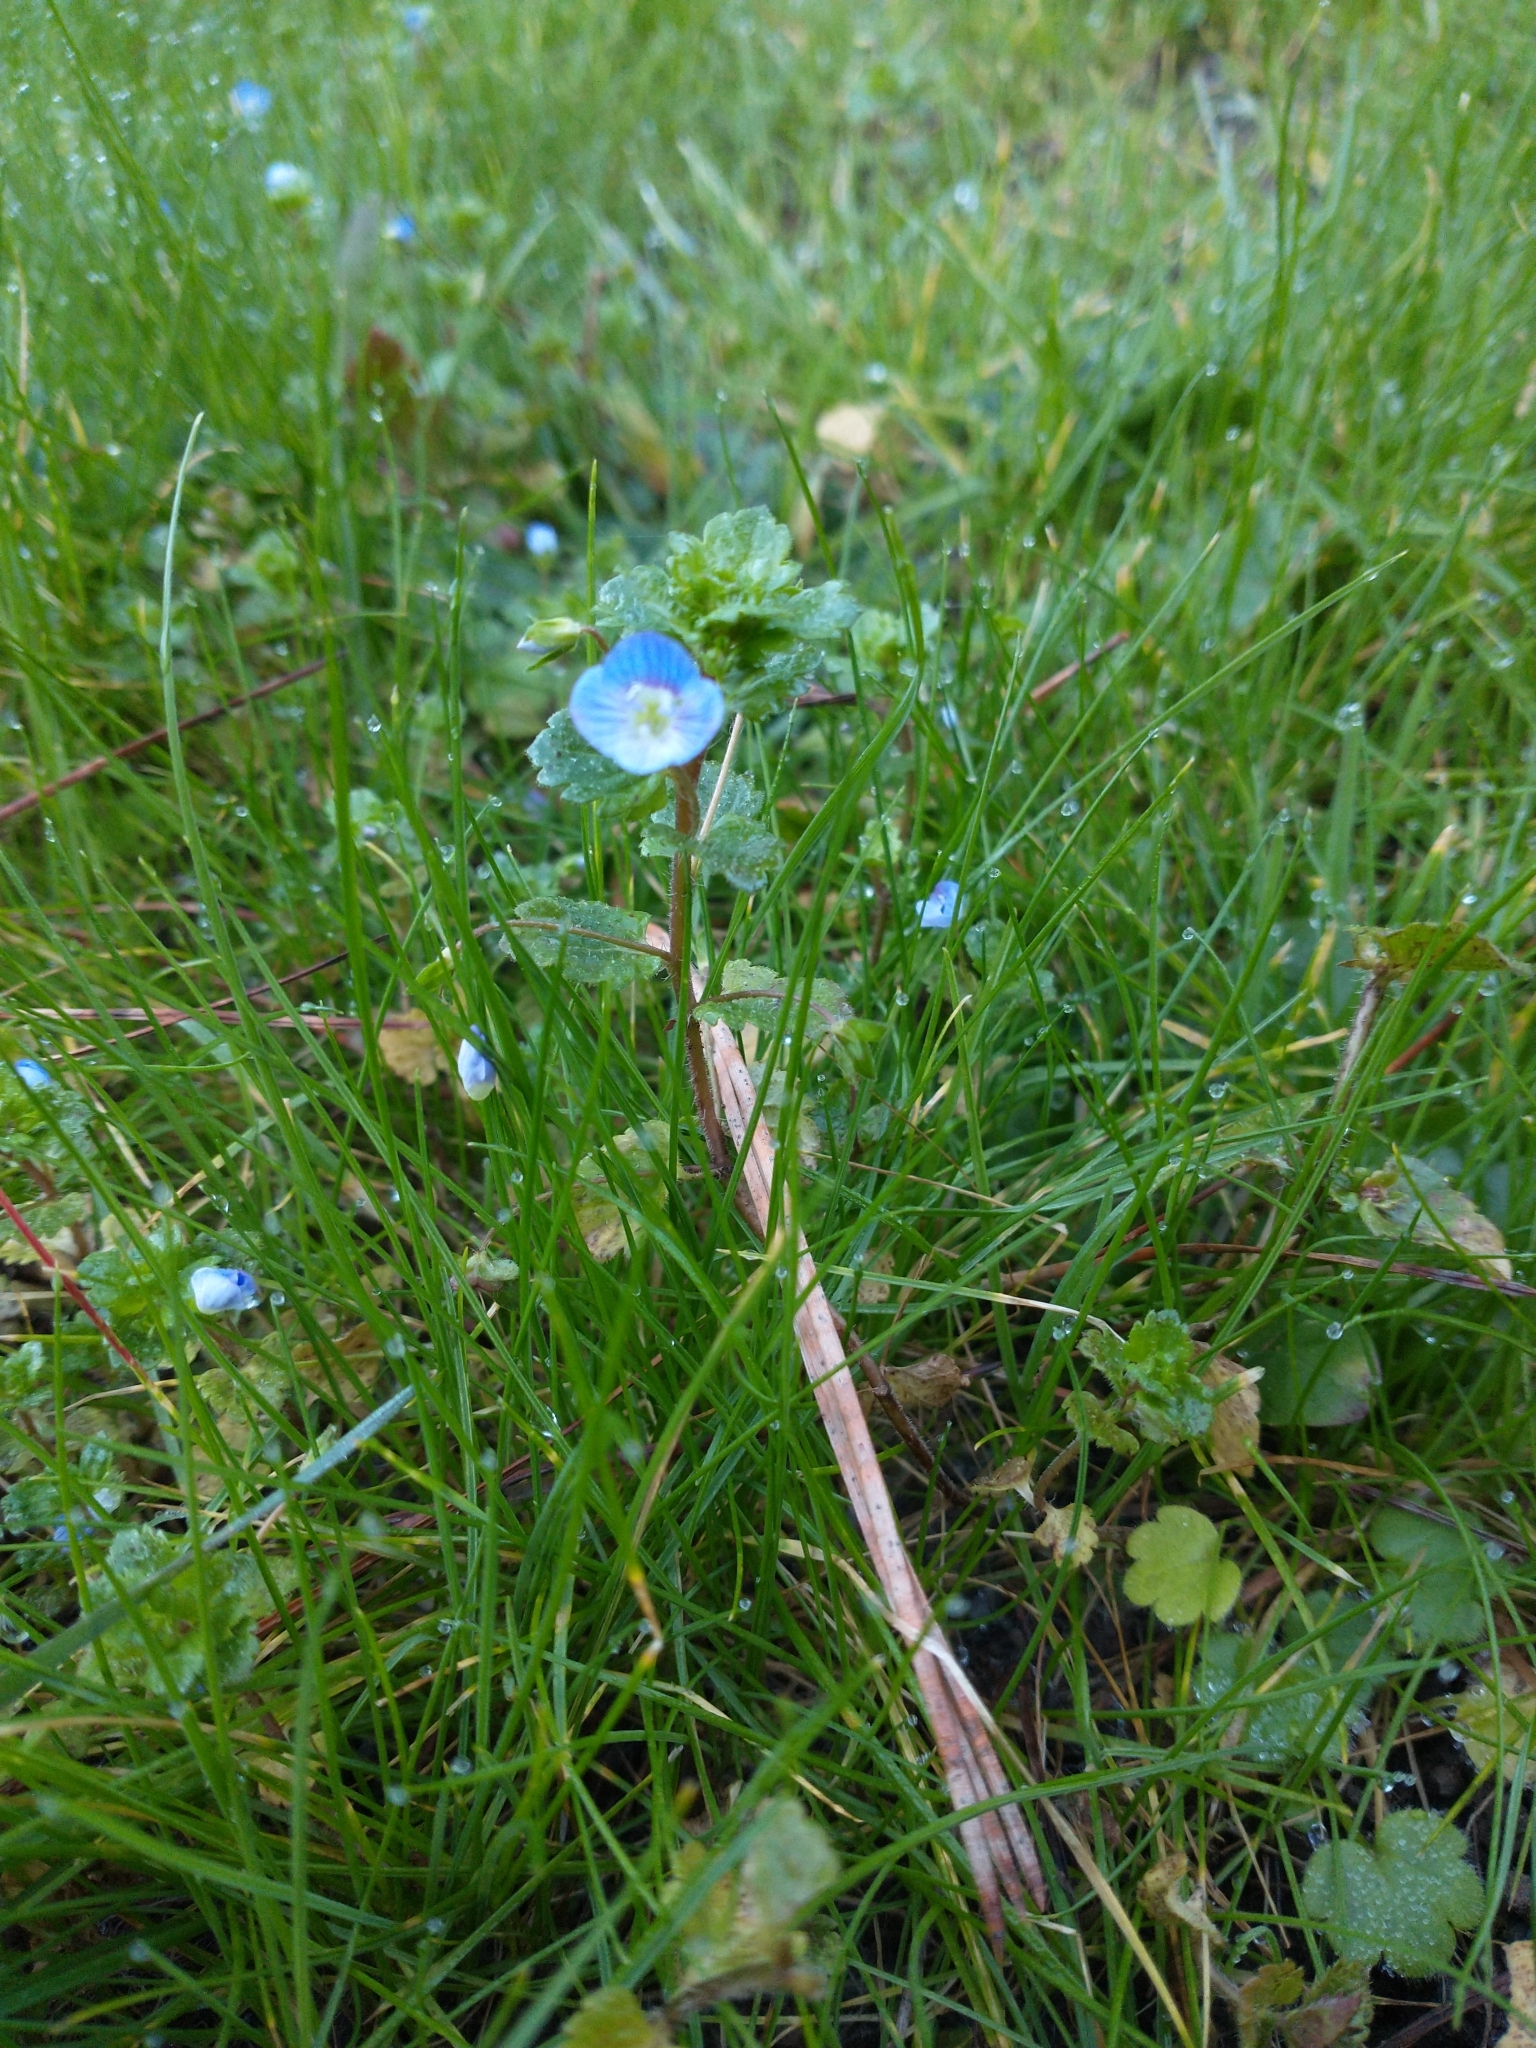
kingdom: Plantae
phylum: Tracheophyta
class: Magnoliopsida
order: Lamiales
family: Plantaginaceae
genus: Veronica
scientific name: Veronica persica
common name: Common field-speedwell
